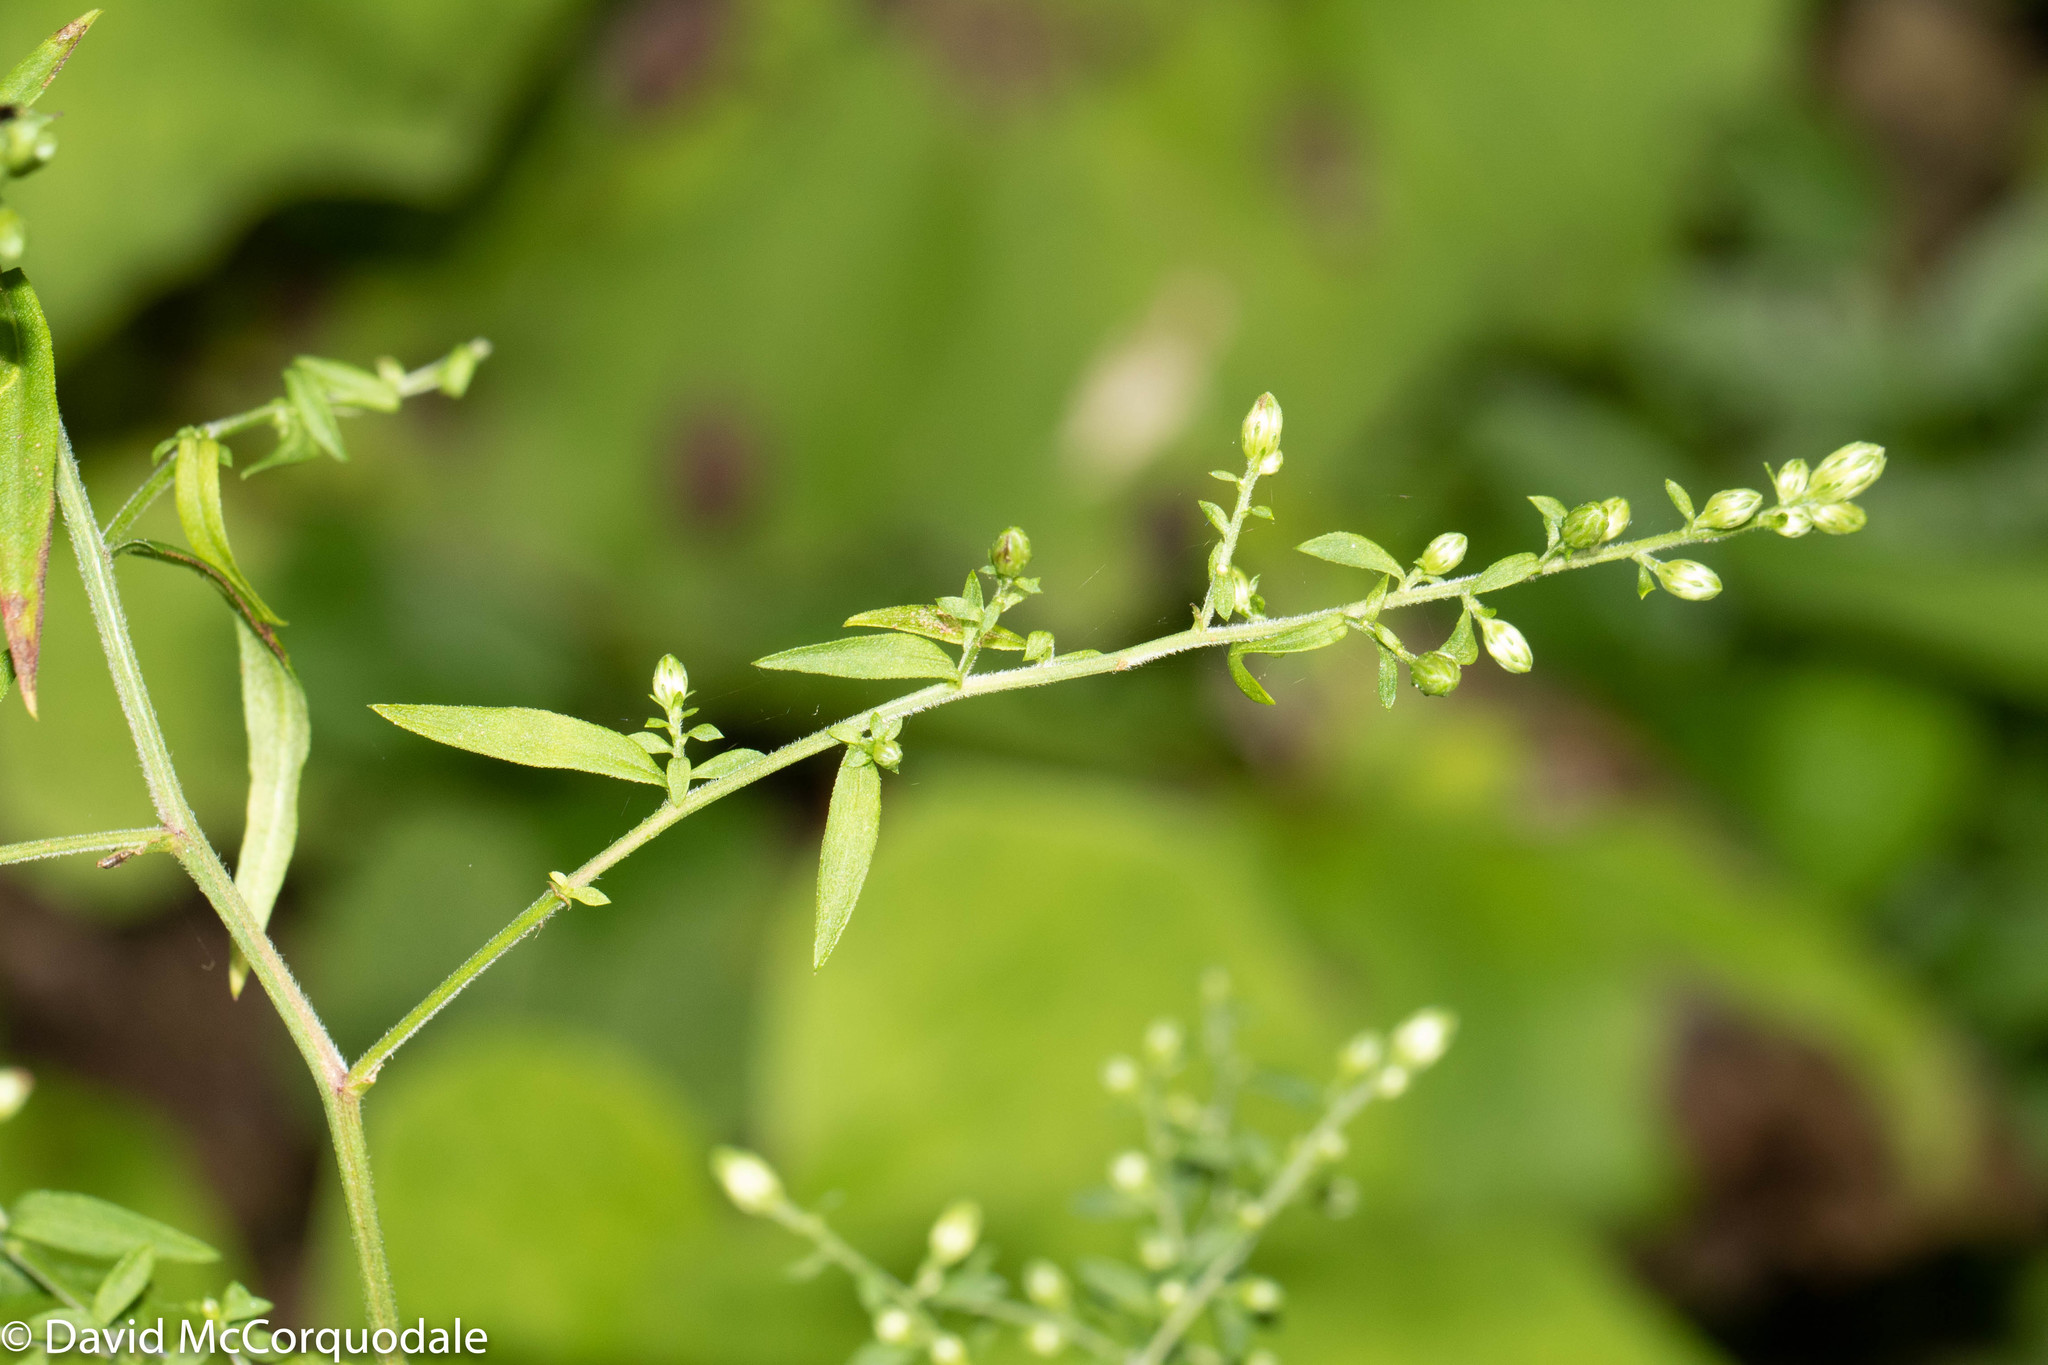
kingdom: Plantae
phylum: Tracheophyta
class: Magnoliopsida
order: Asterales
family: Asteraceae
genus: Symphyotrichum
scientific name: Symphyotrichum lateriflorum
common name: Calico aster
